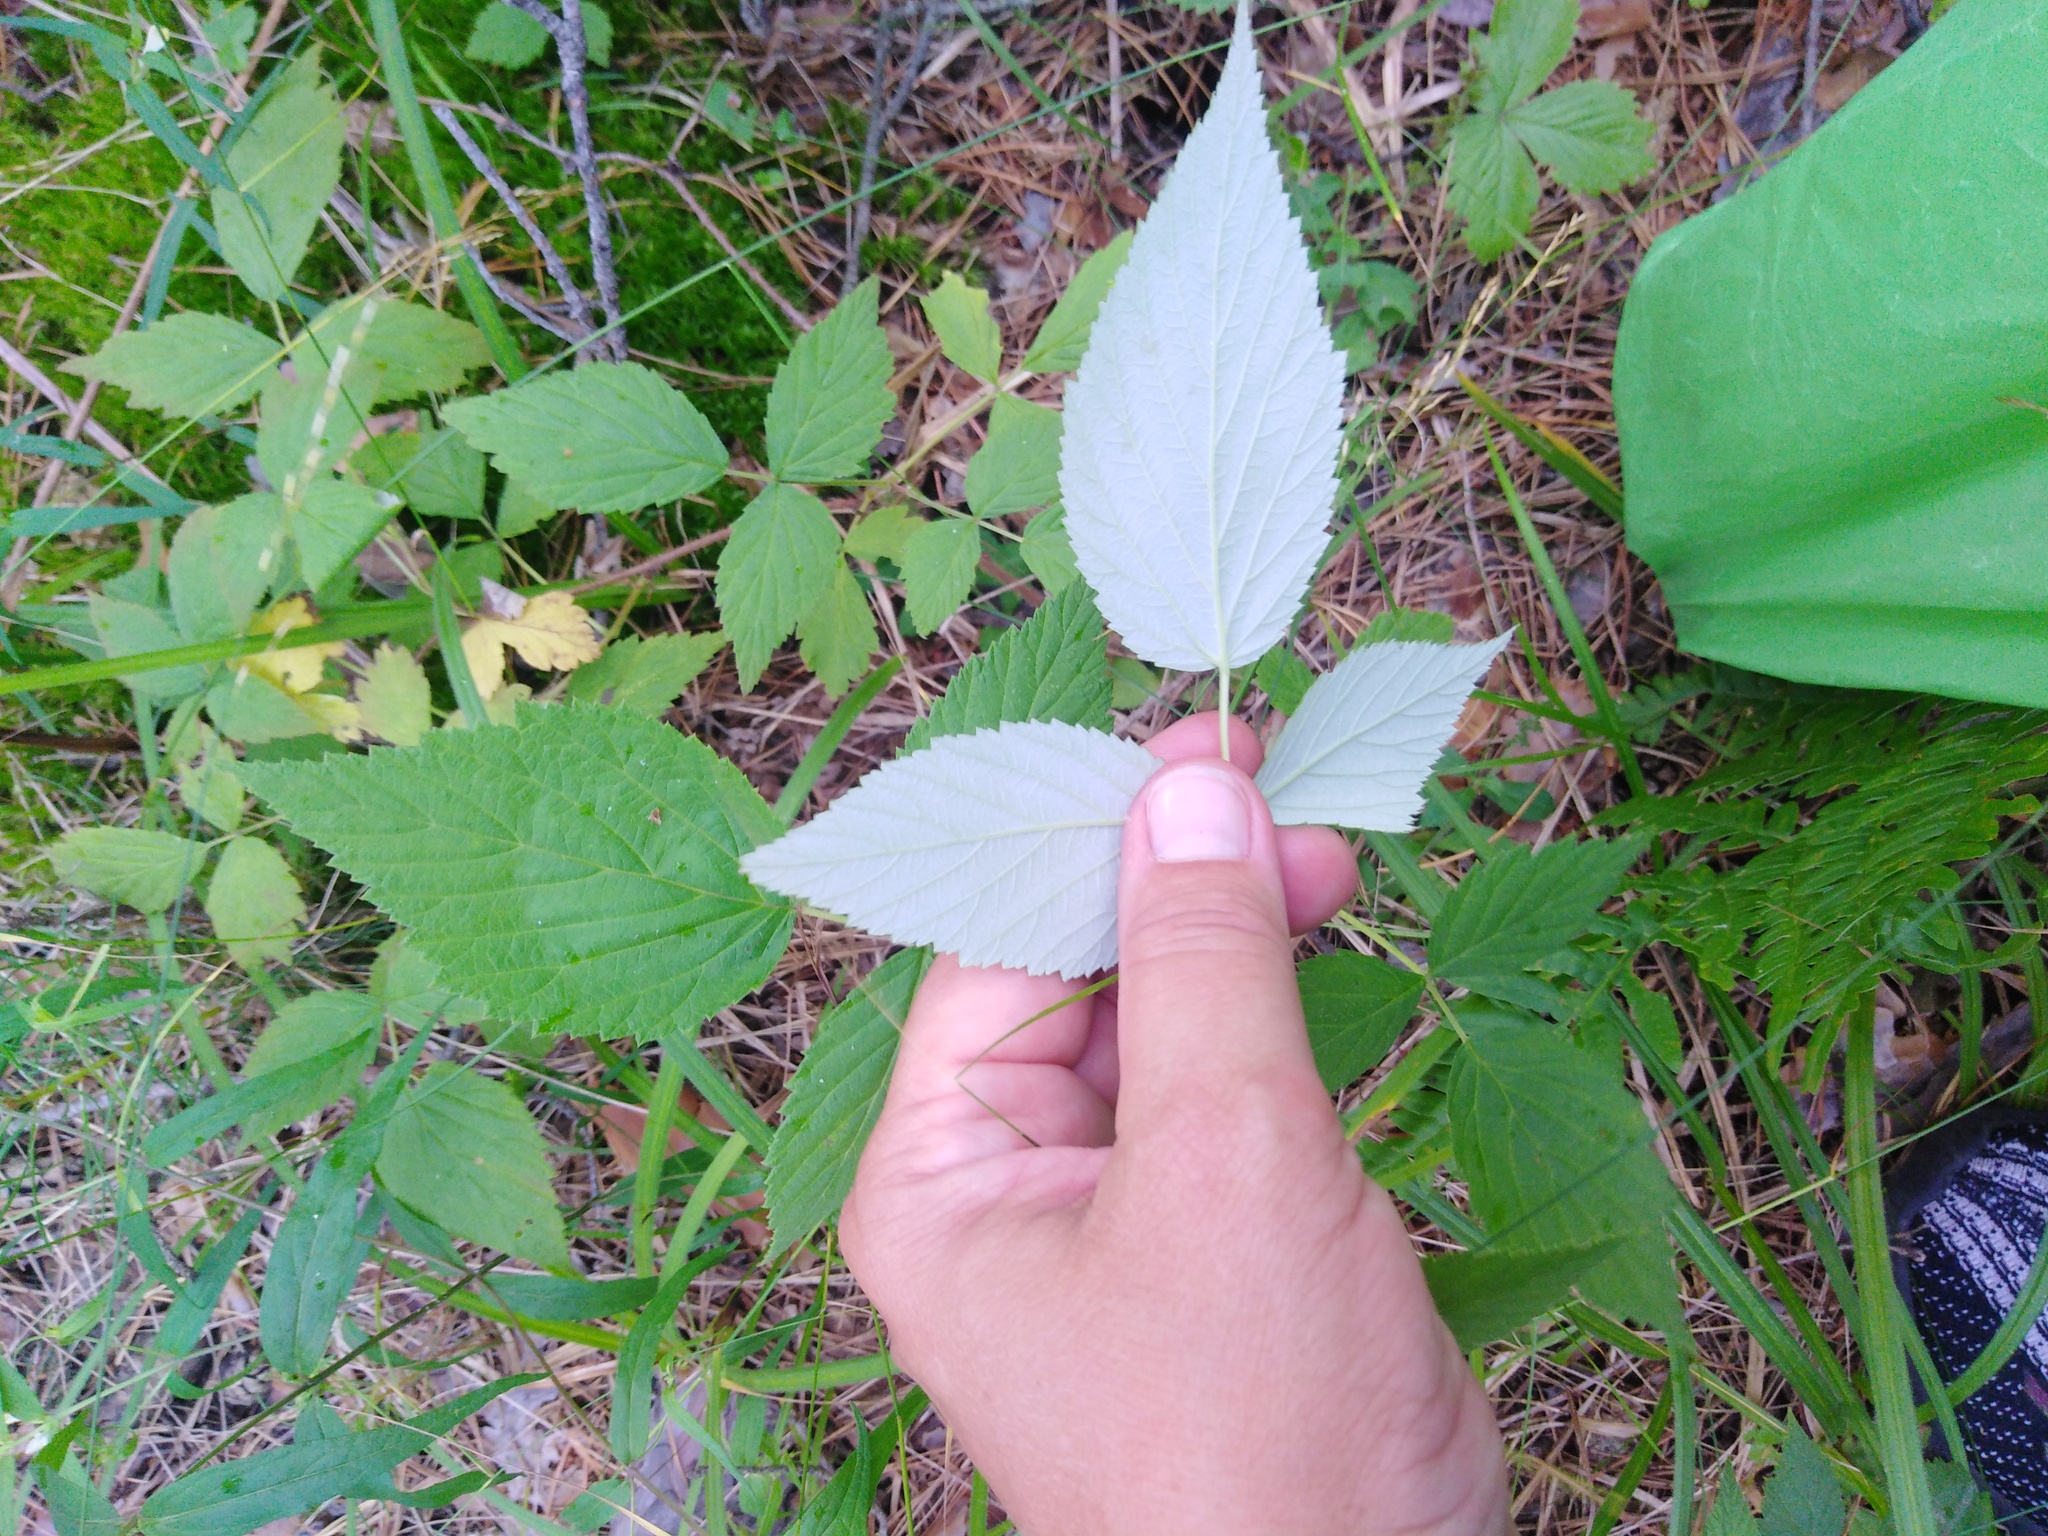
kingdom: Plantae
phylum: Tracheophyta
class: Magnoliopsida
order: Rosales
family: Rosaceae
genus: Rubus
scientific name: Rubus idaeus
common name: Raspberry
